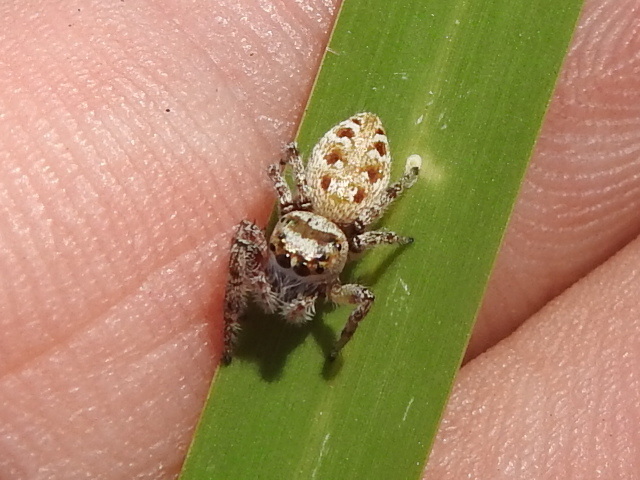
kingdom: Animalia
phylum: Arthropoda
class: Arachnida
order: Araneae
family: Salticidae
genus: Eris
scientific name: Eris militaris
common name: Bronze jumper
